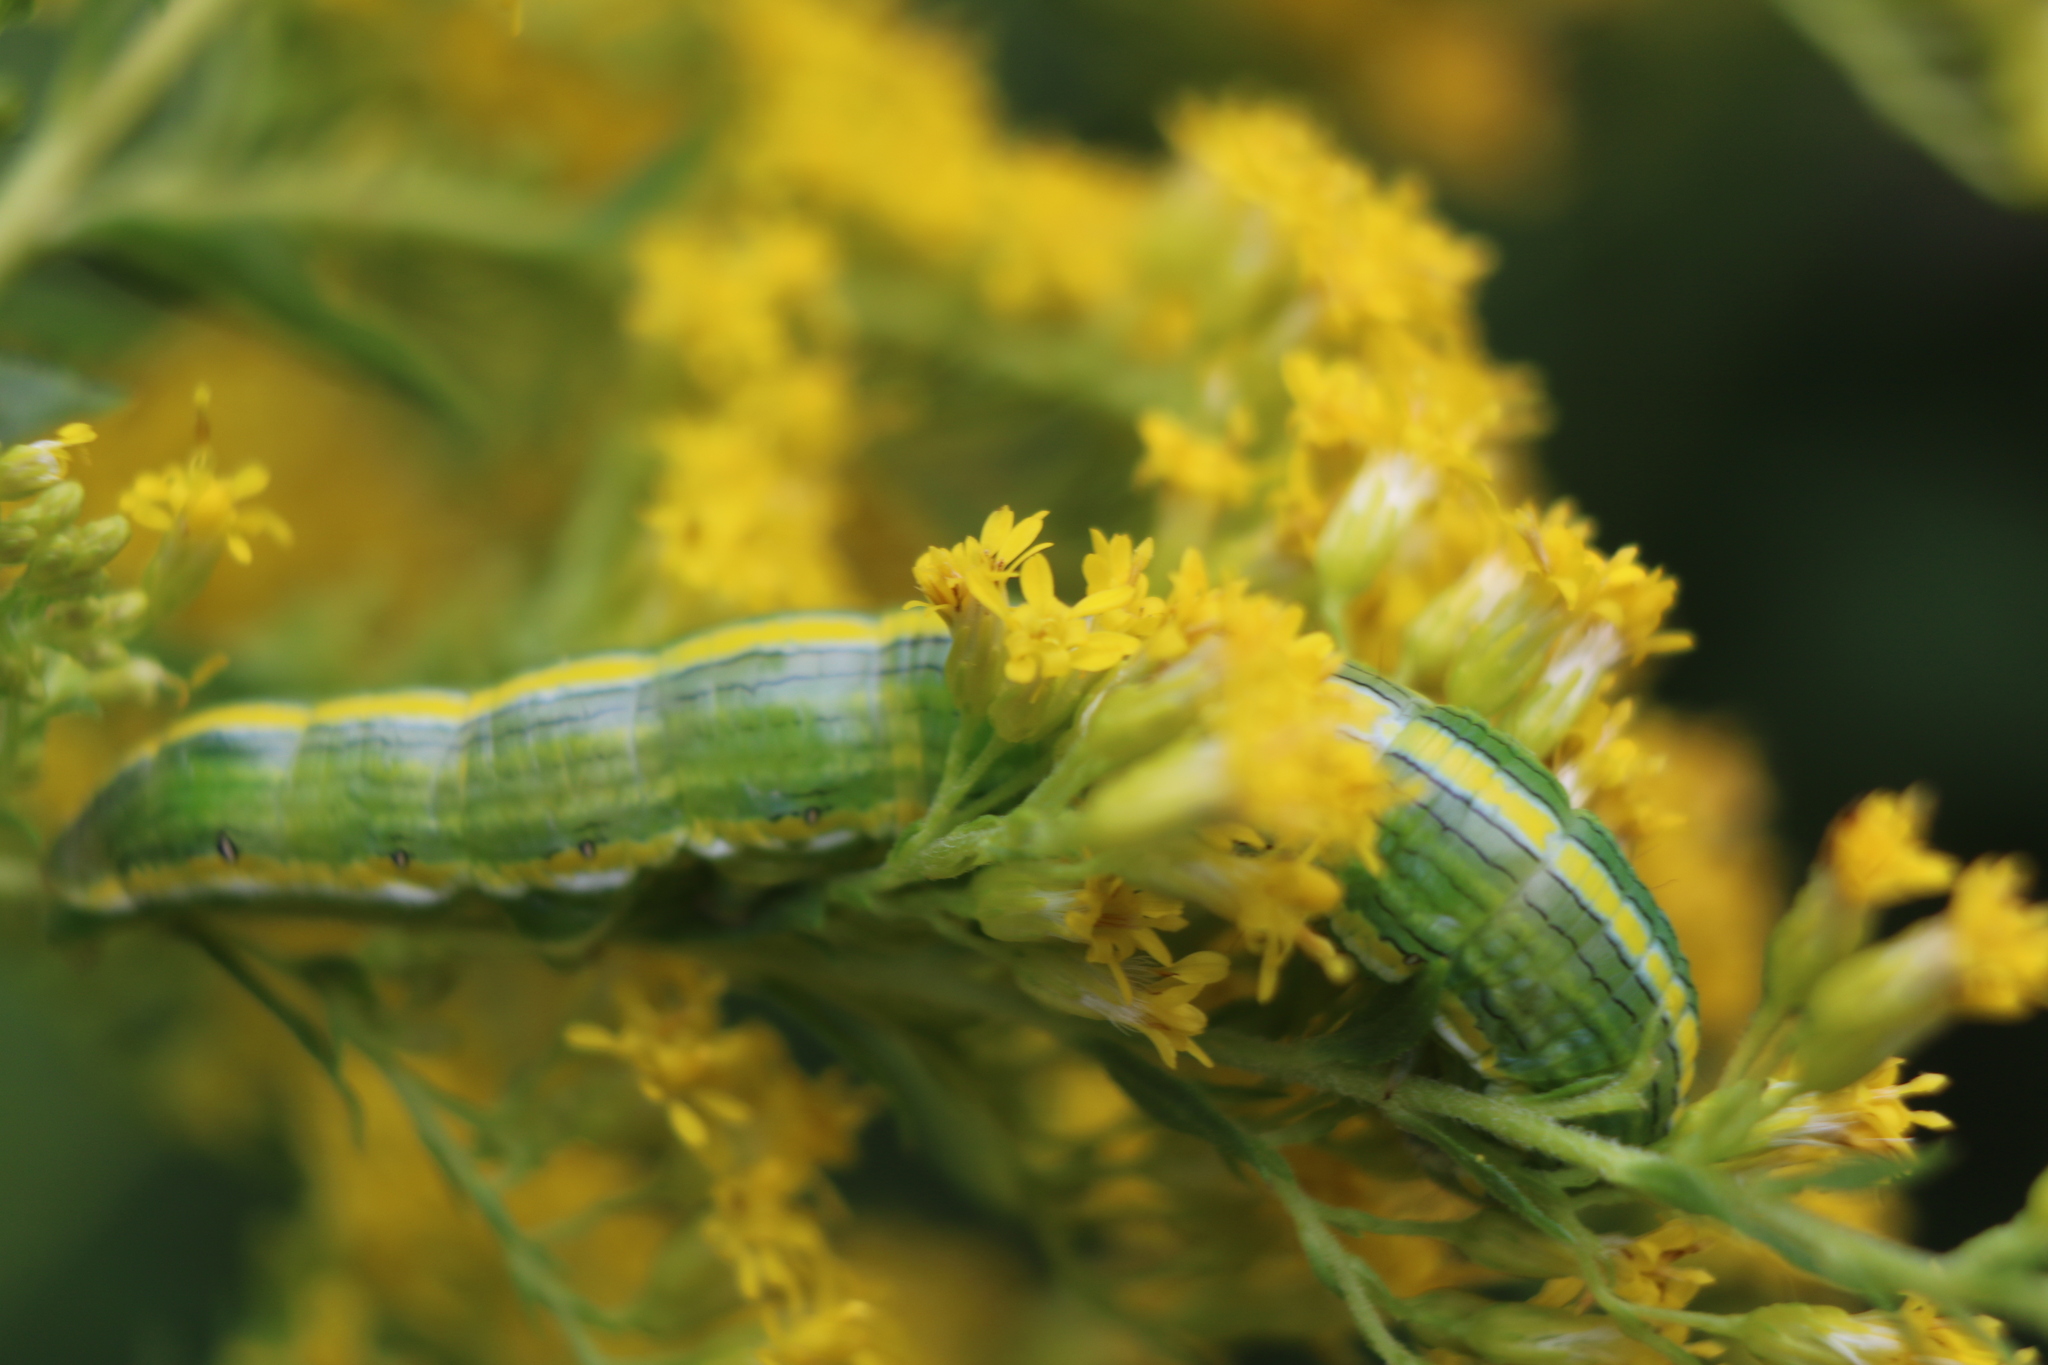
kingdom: Animalia
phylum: Arthropoda
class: Insecta
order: Lepidoptera
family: Noctuidae
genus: Cucullia
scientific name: Cucullia asteroides
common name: Asteroid moth
